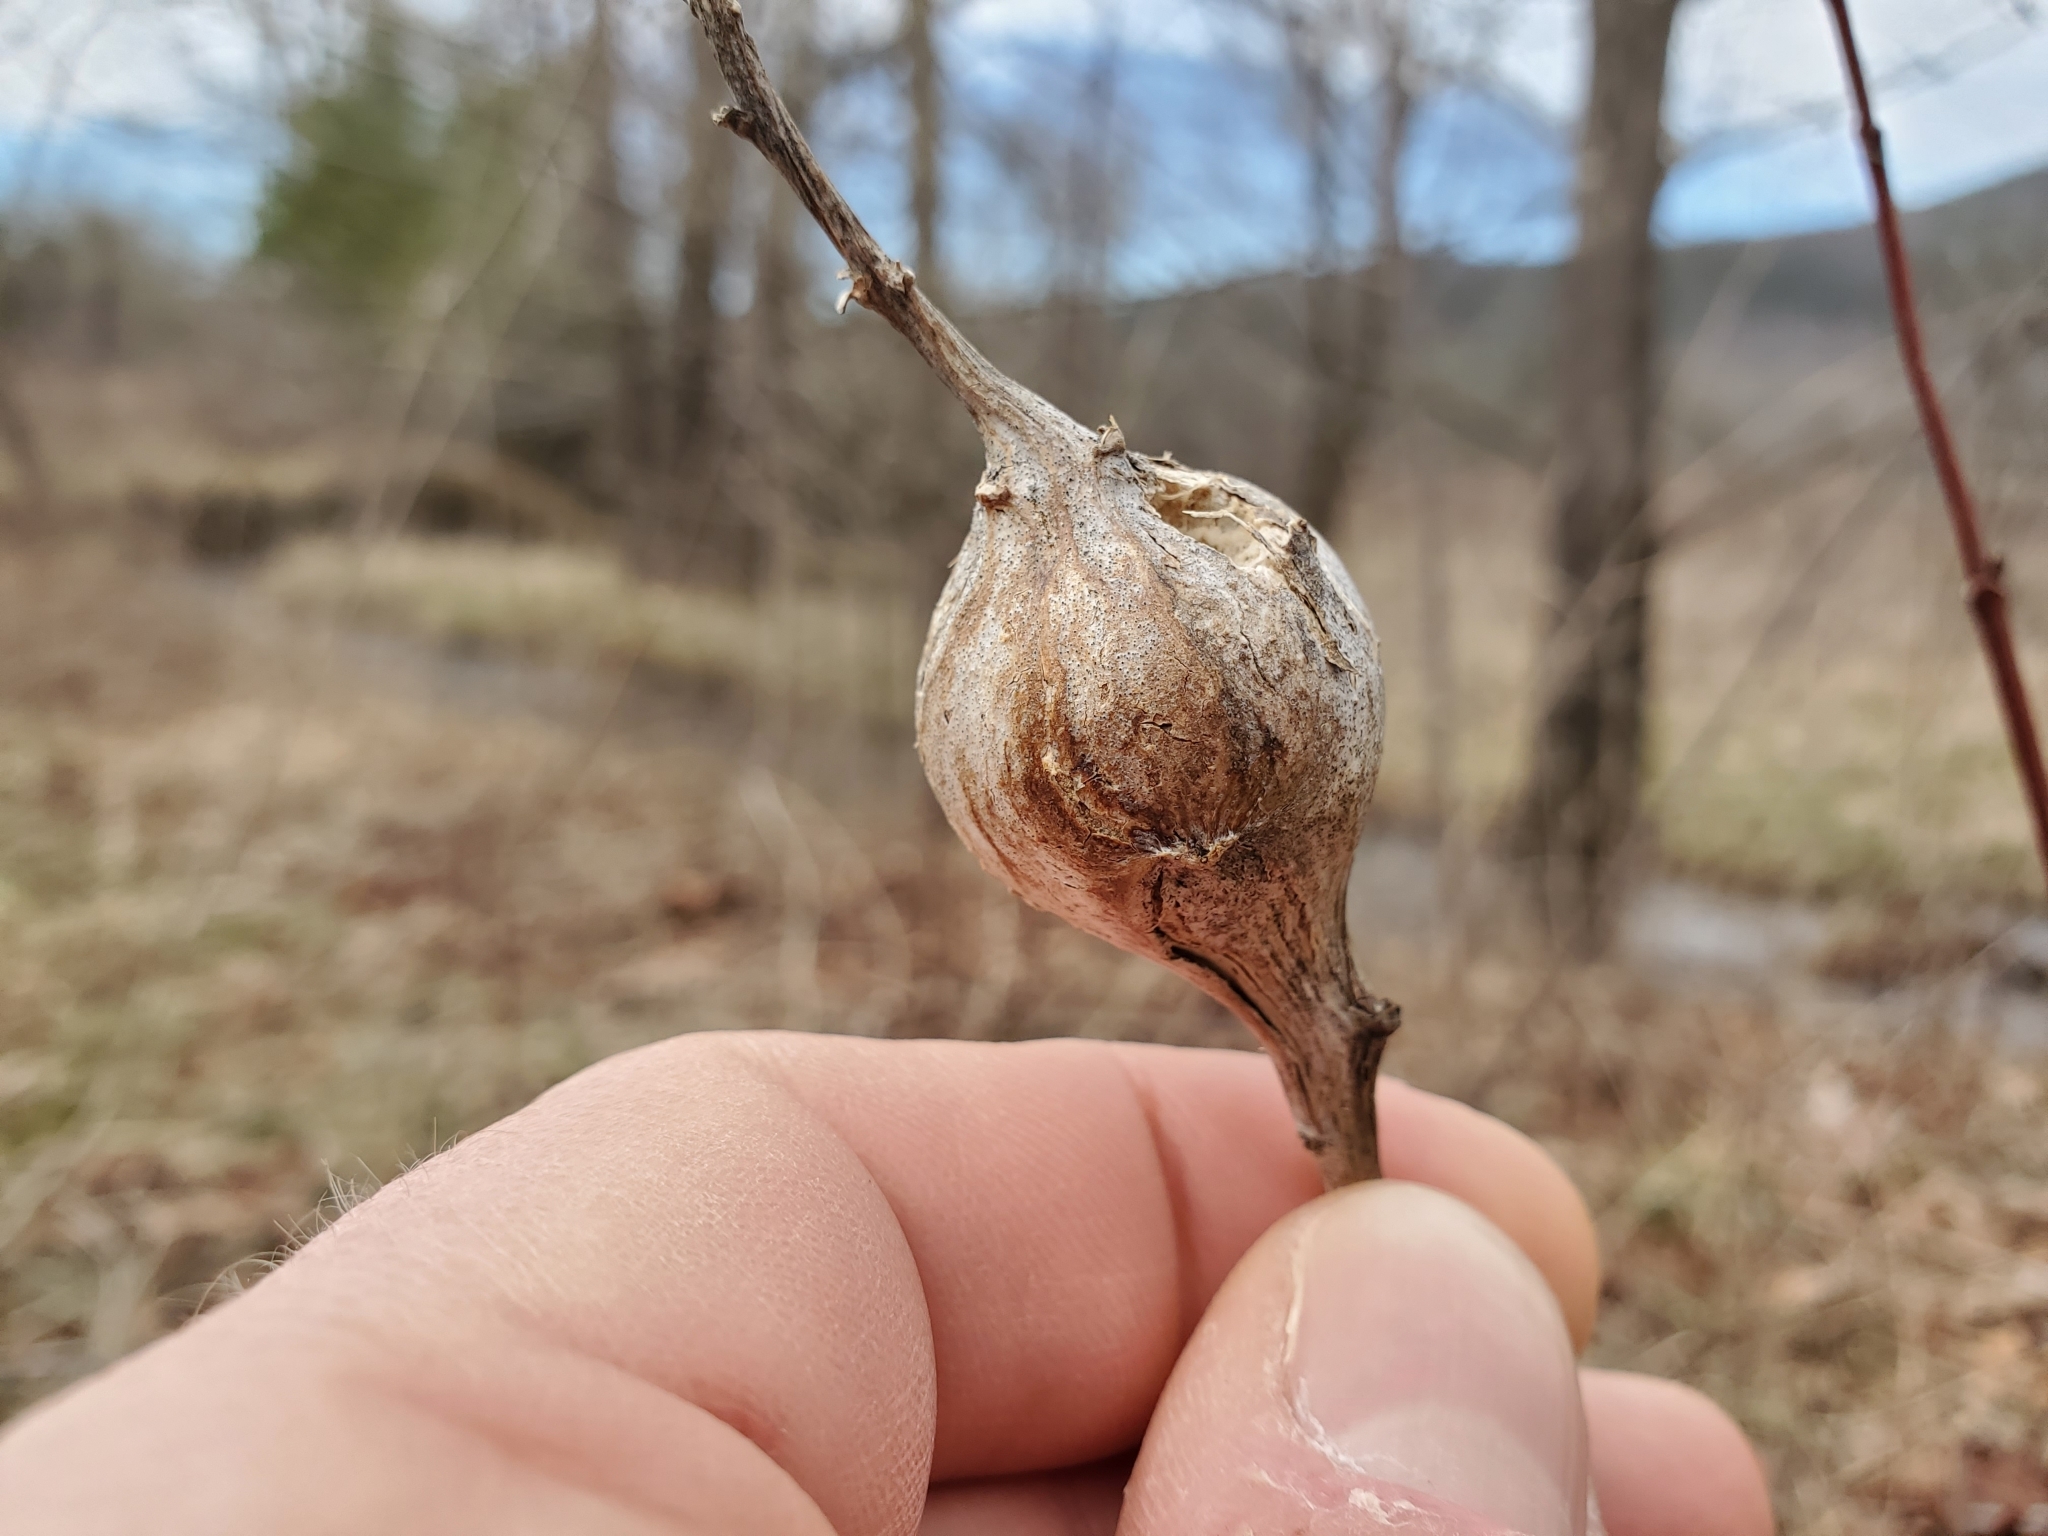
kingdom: Animalia
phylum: Arthropoda
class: Insecta
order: Diptera
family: Tephritidae
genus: Eurosta
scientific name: Eurosta solidaginis
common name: Goldenrod gall fly
